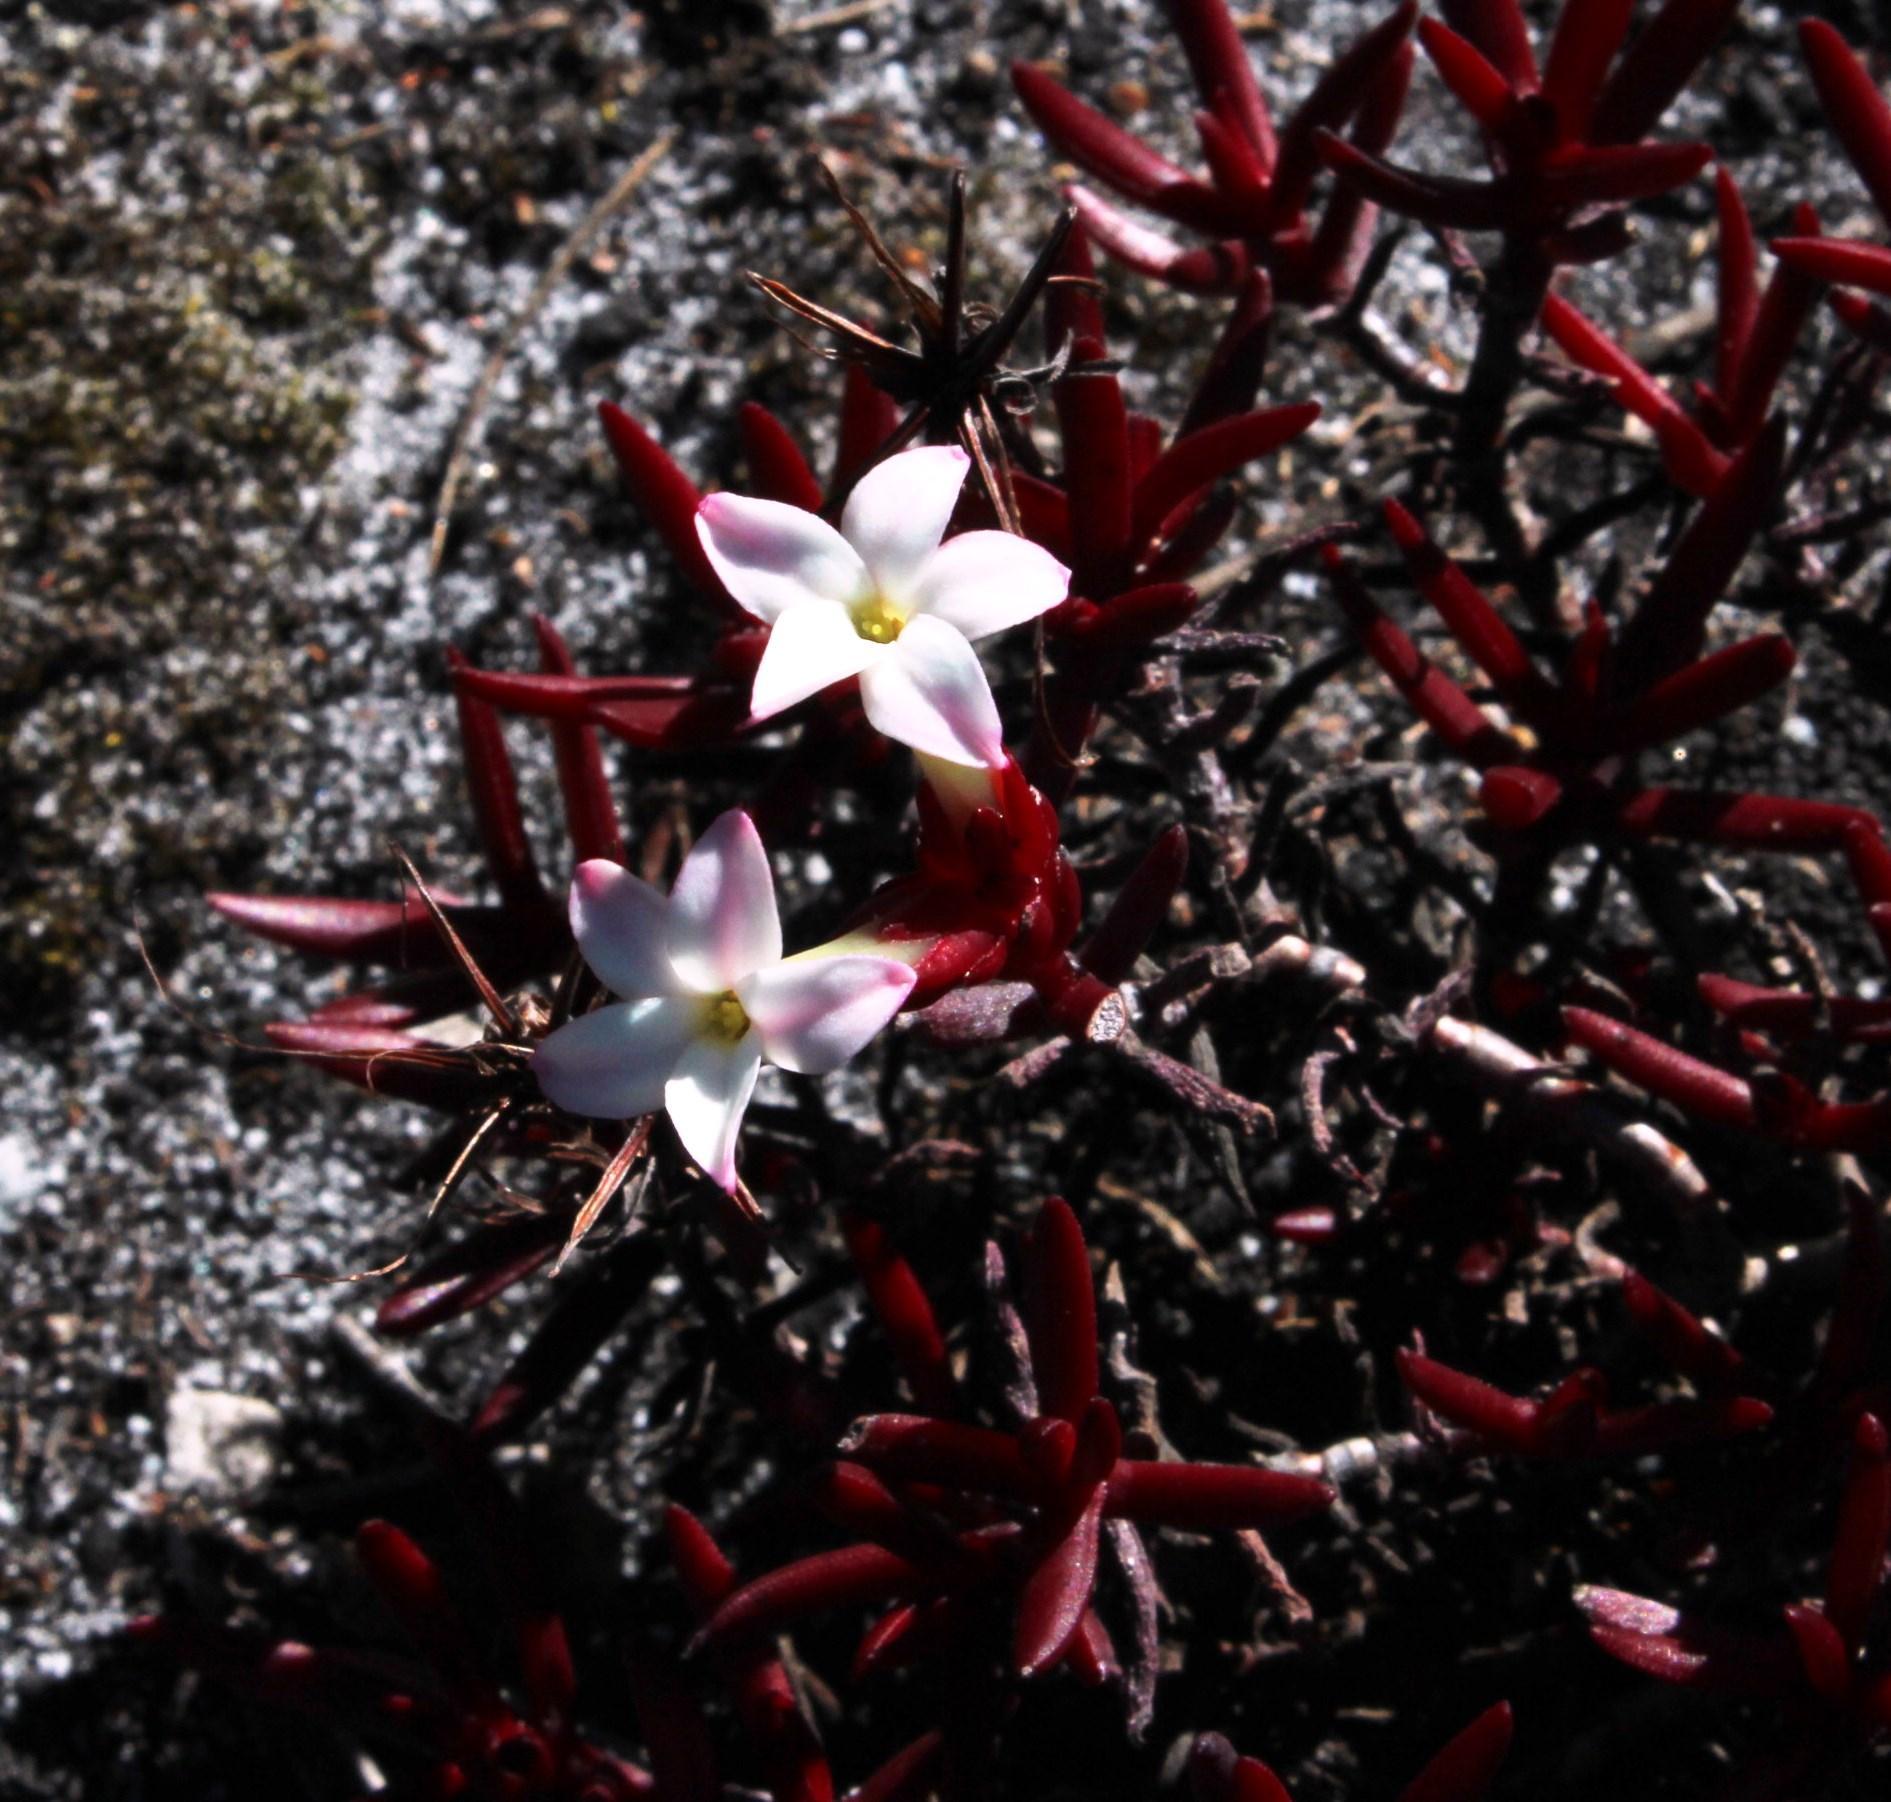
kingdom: Plantae
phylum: Tracheophyta
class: Magnoliopsida
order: Saxifragales
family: Crassulaceae
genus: Crassula
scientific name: Crassula obtusa
